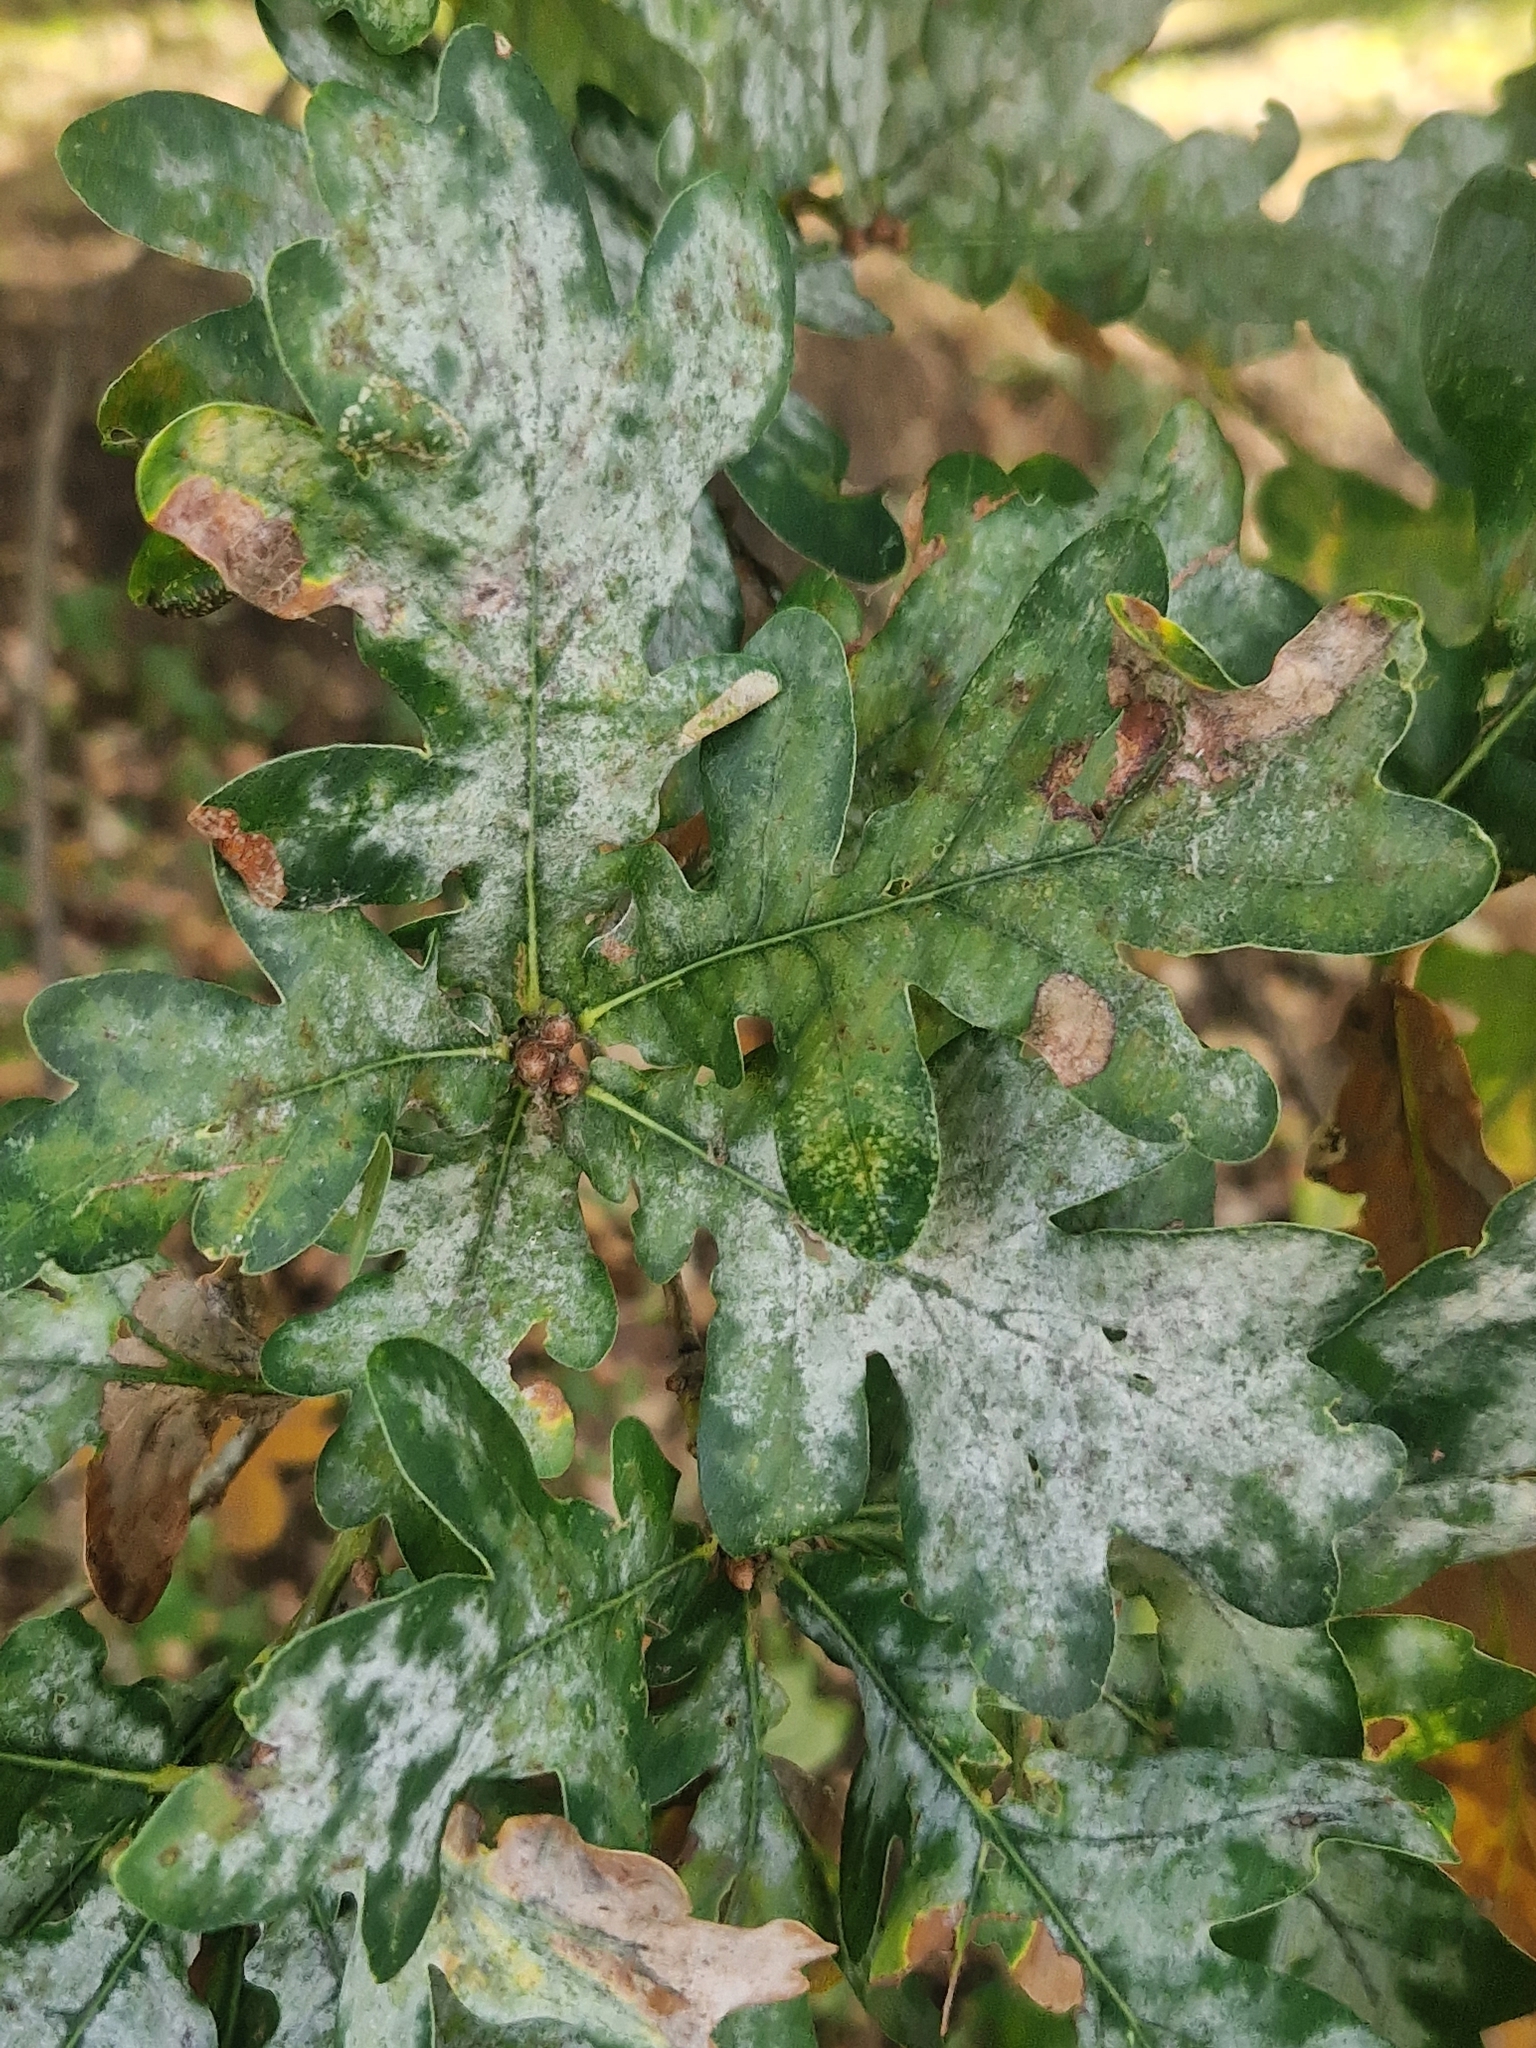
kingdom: Fungi
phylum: Ascomycota
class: Leotiomycetes
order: Helotiales
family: Erysiphaceae
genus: Erysiphe
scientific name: Erysiphe alphitoides
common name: Oak mildew
